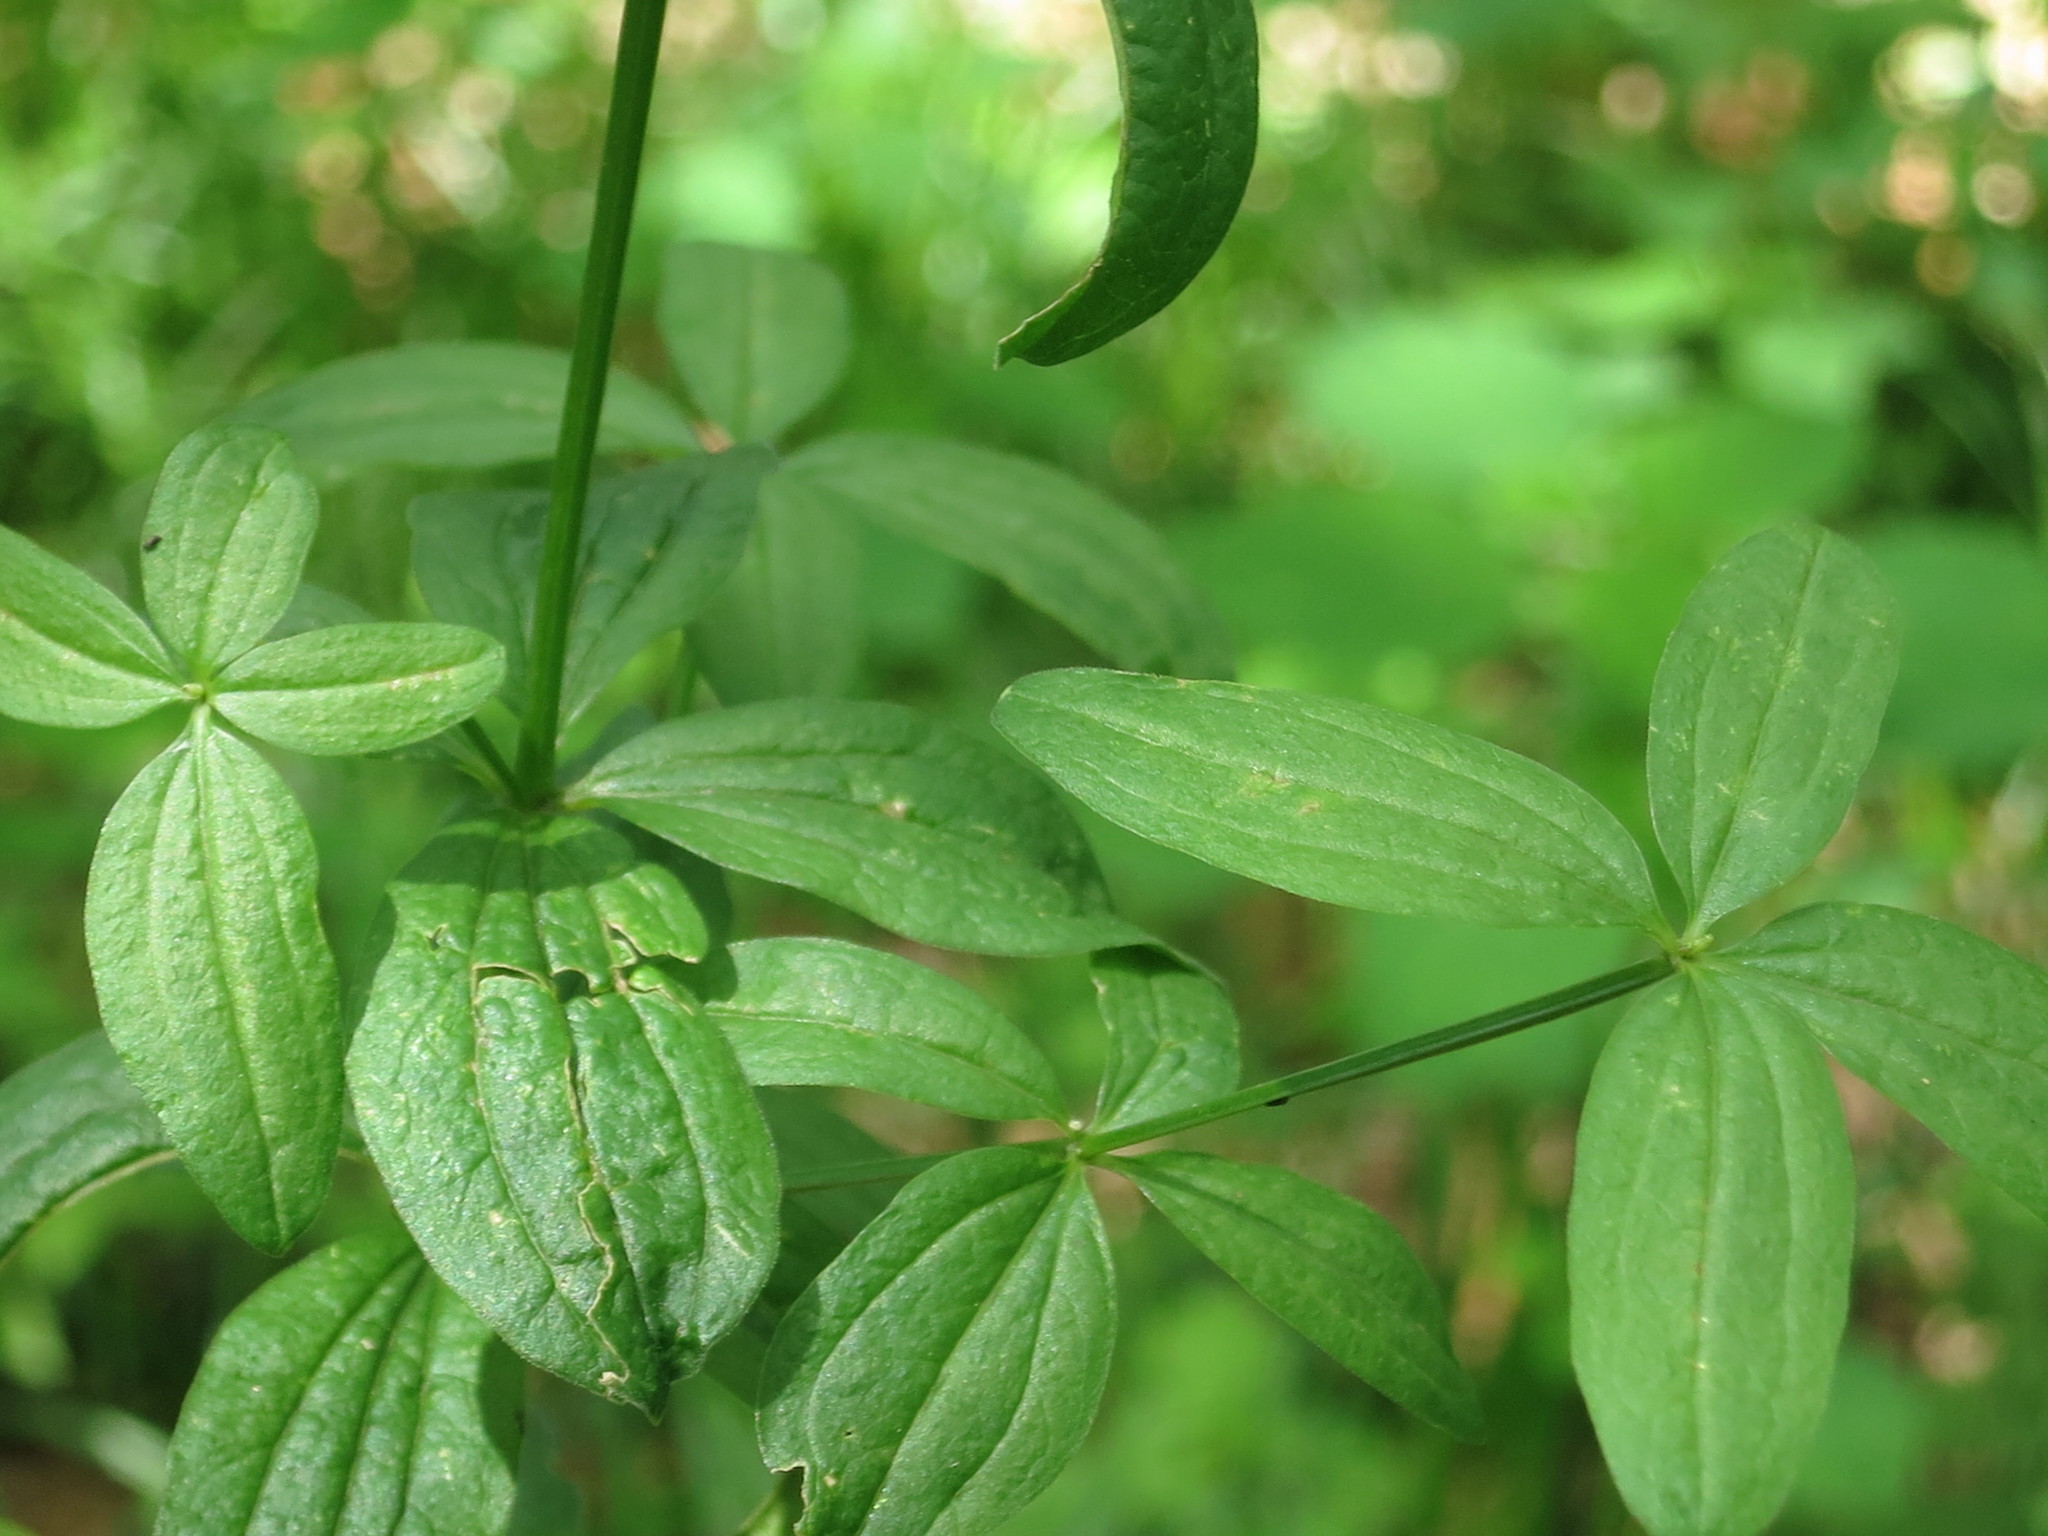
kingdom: Plantae
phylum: Tracheophyta
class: Magnoliopsida
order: Gentianales
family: Rubiaceae
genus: Galium
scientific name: Galium boreale
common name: Northern bedstraw
